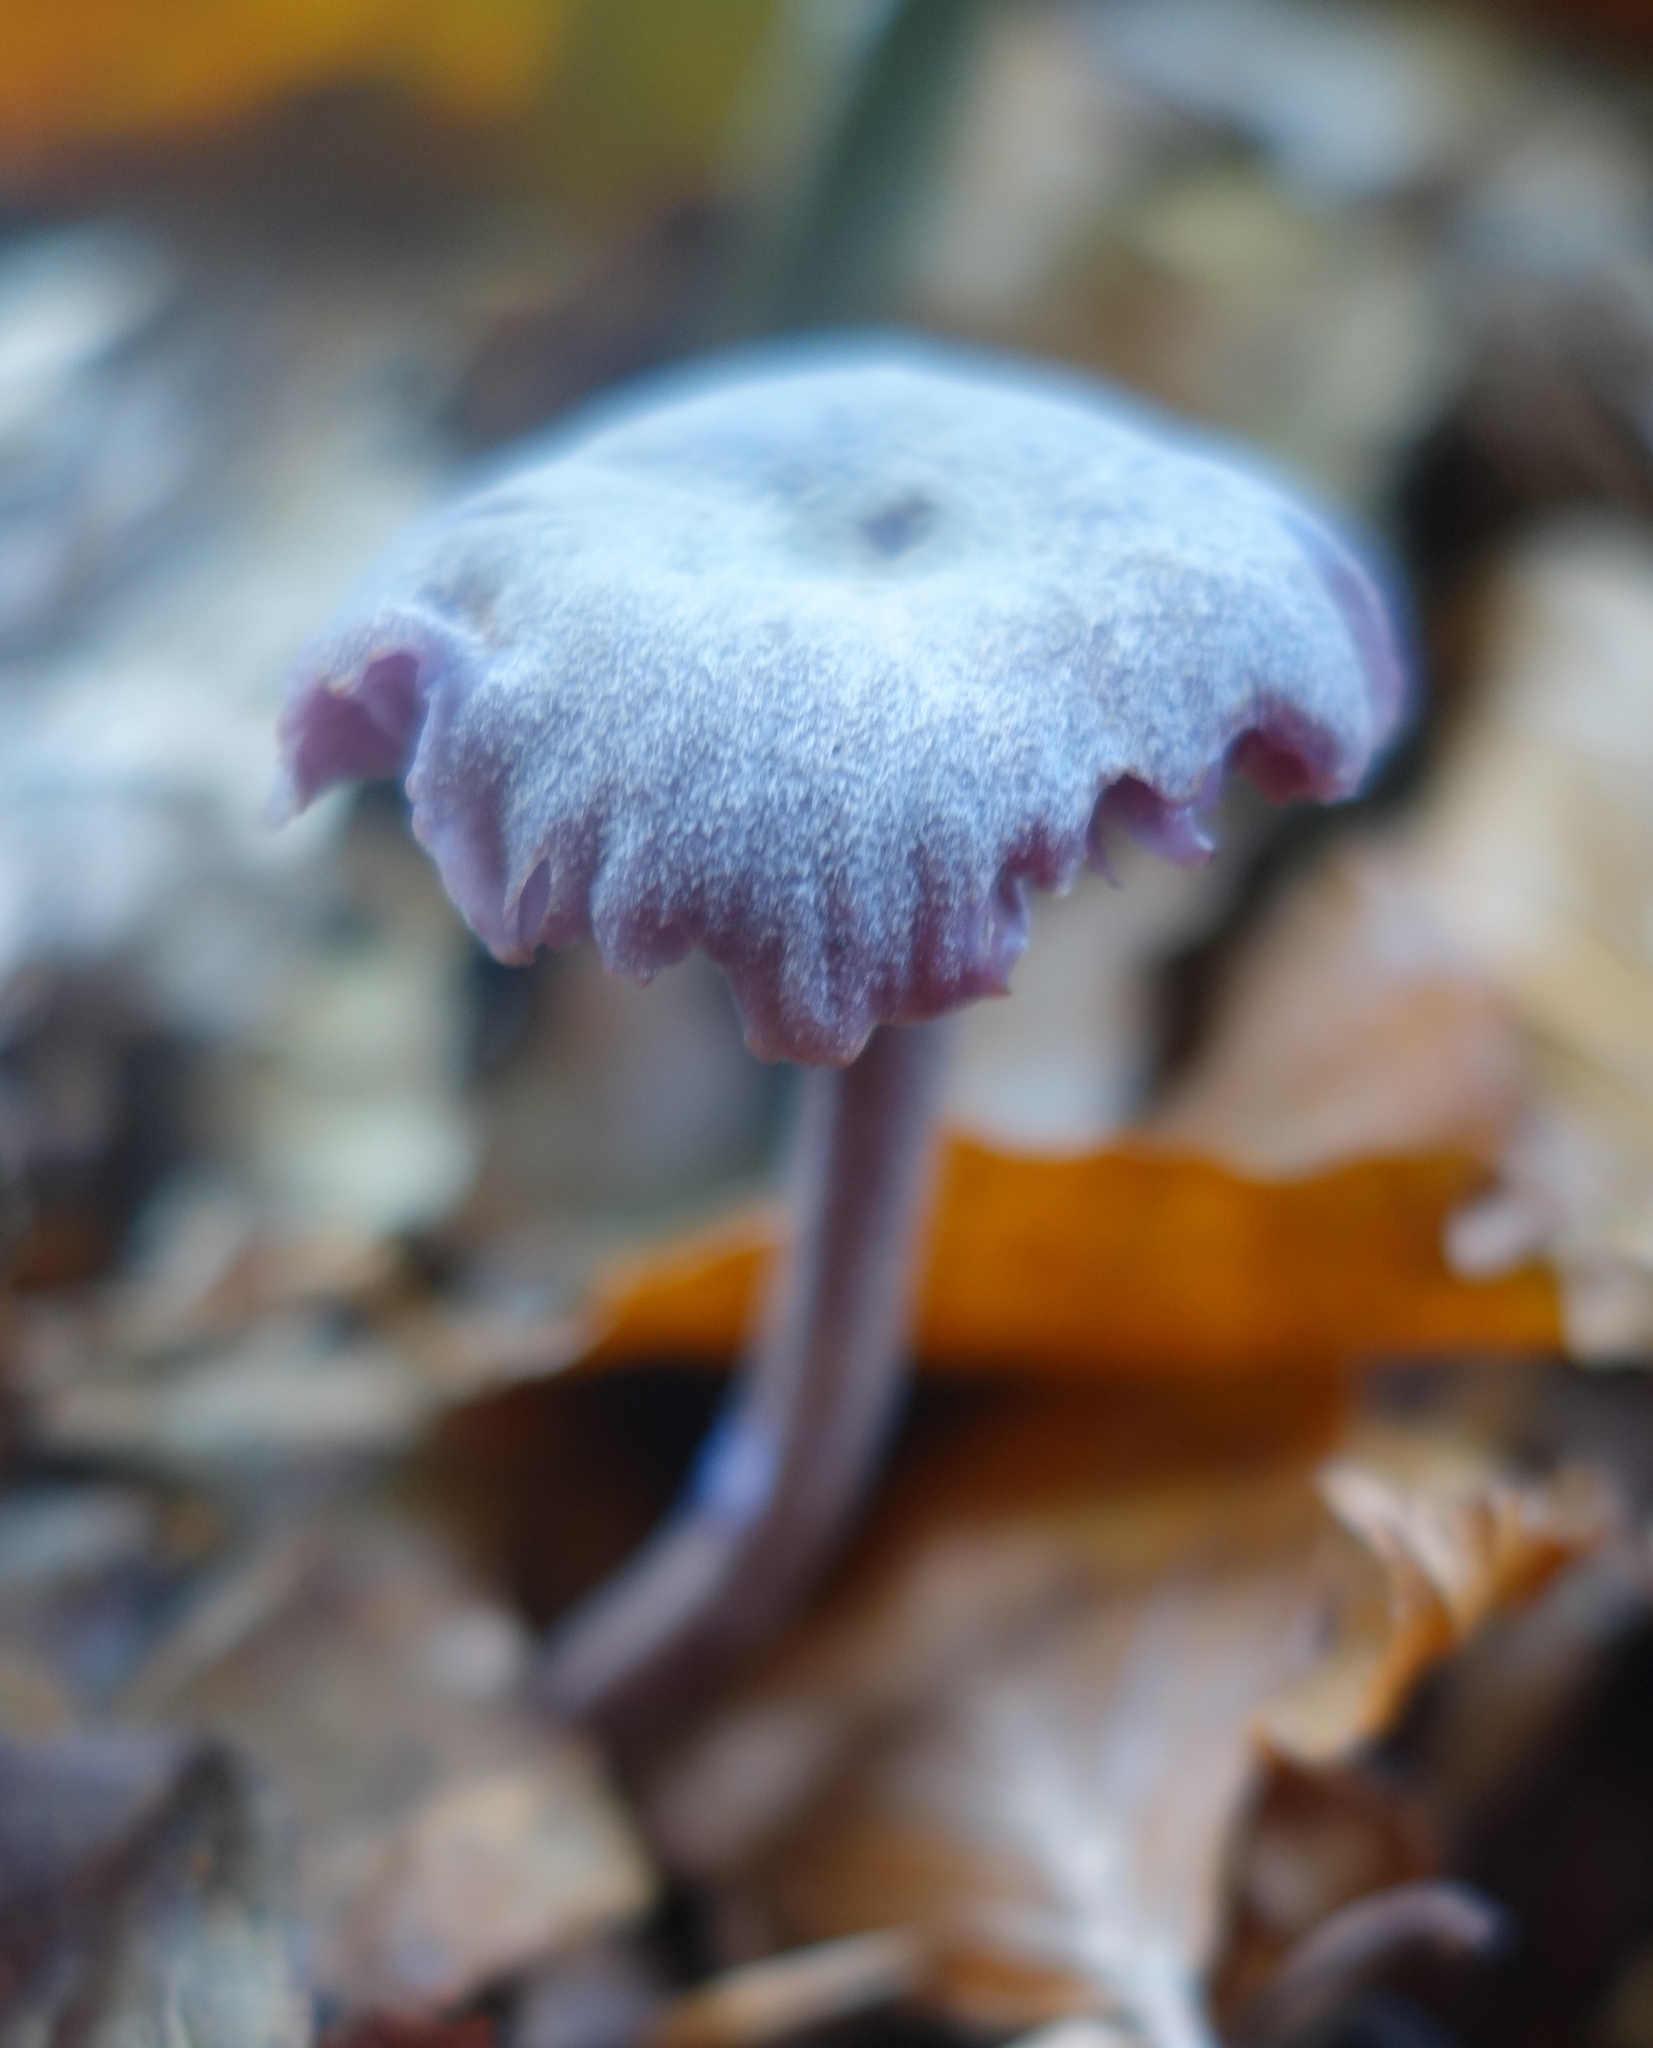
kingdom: Fungi
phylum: Basidiomycota
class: Agaricomycetes
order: Agaricales
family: Hydnangiaceae
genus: Laccaria
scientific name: Laccaria amethystina
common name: Amethyst deceiver
